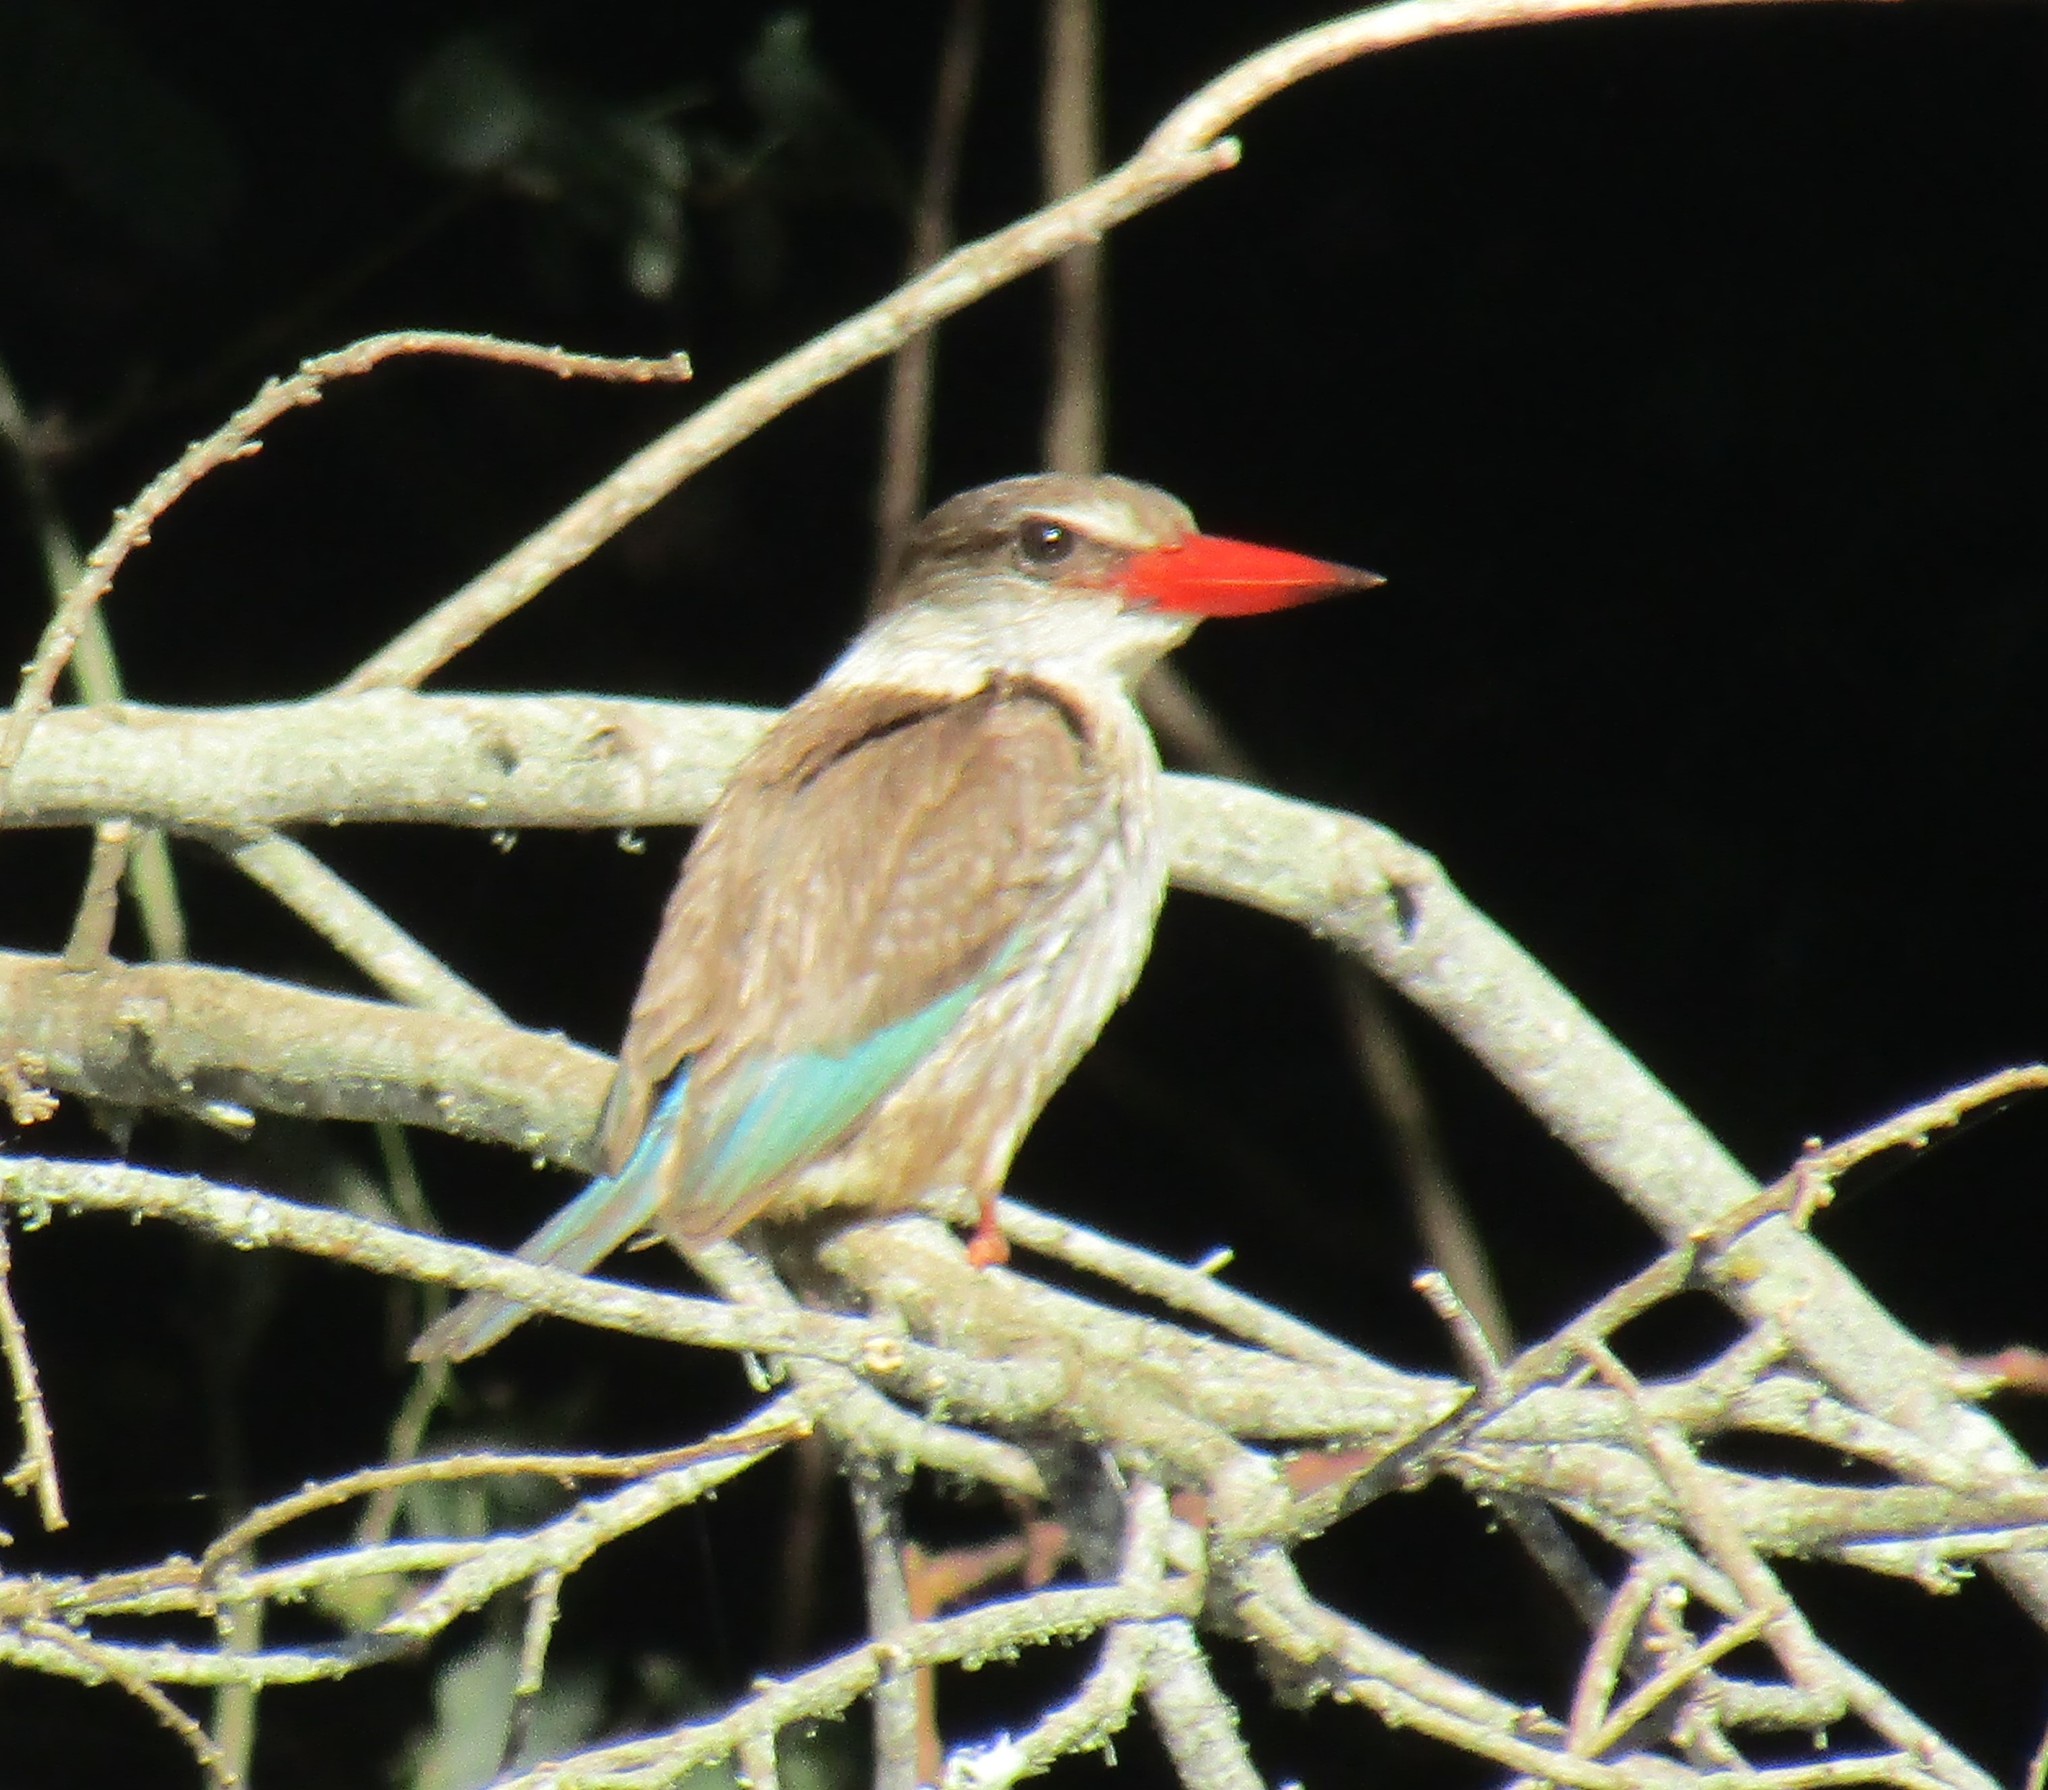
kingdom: Animalia
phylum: Chordata
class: Aves
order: Coraciiformes
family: Alcedinidae
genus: Halcyon
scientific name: Halcyon albiventris
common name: Brown-hooded kingfisher
